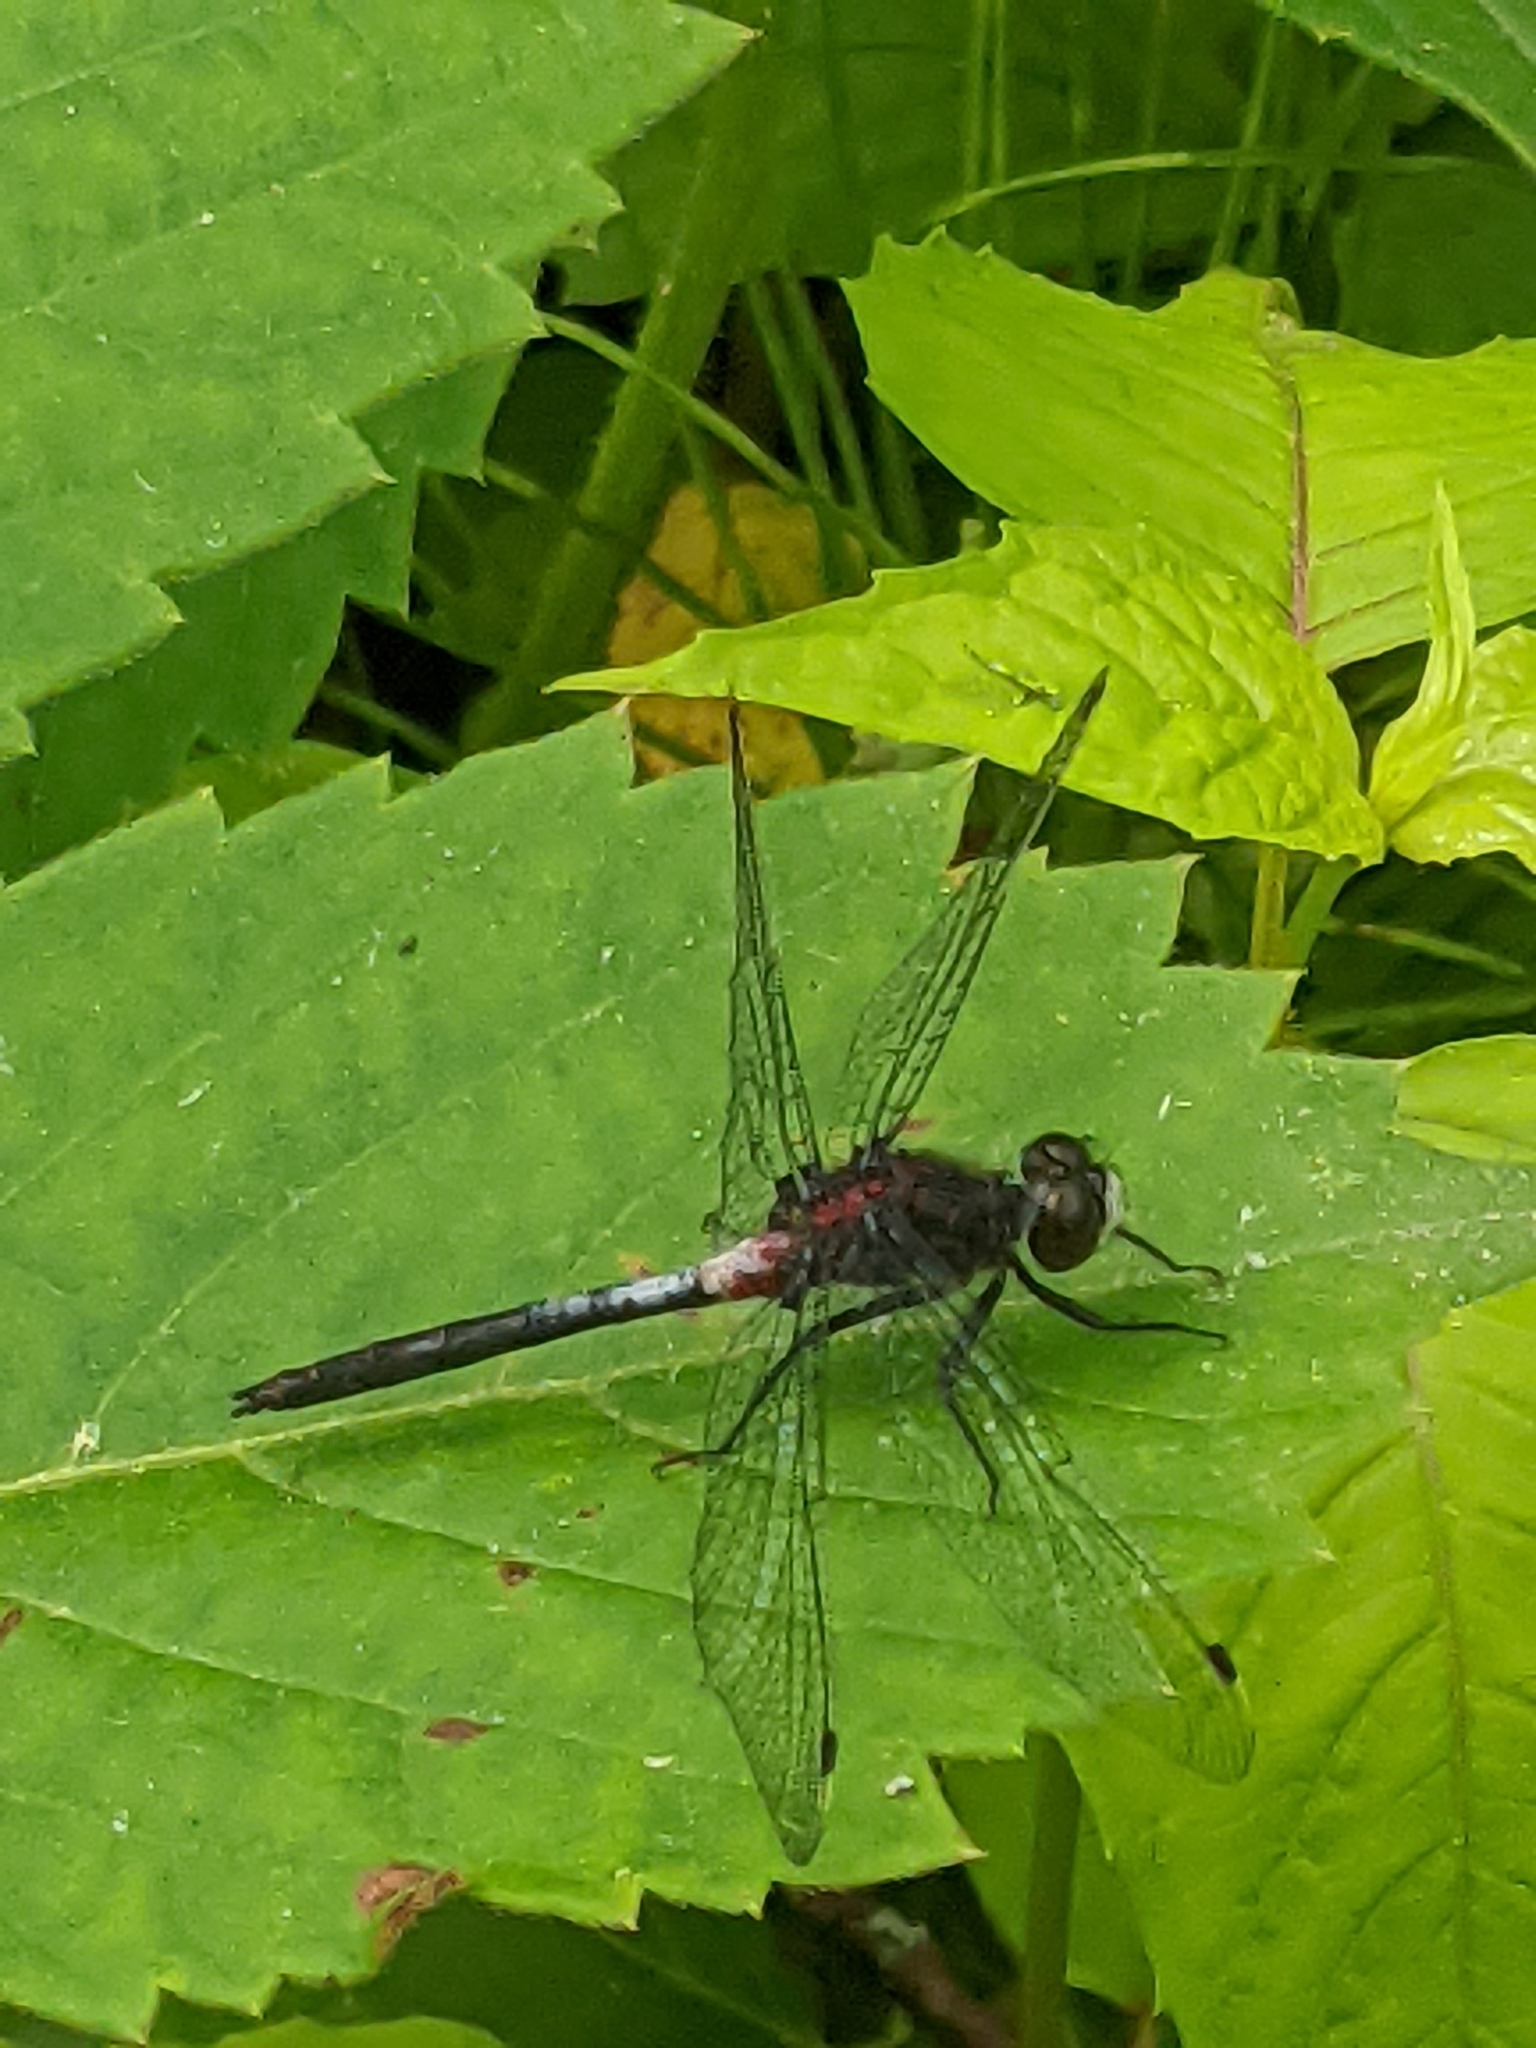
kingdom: Animalia
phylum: Arthropoda
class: Insecta
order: Odonata
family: Libellulidae
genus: Leucorrhinia
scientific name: Leucorrhinia proxima
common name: Belted whiteface
